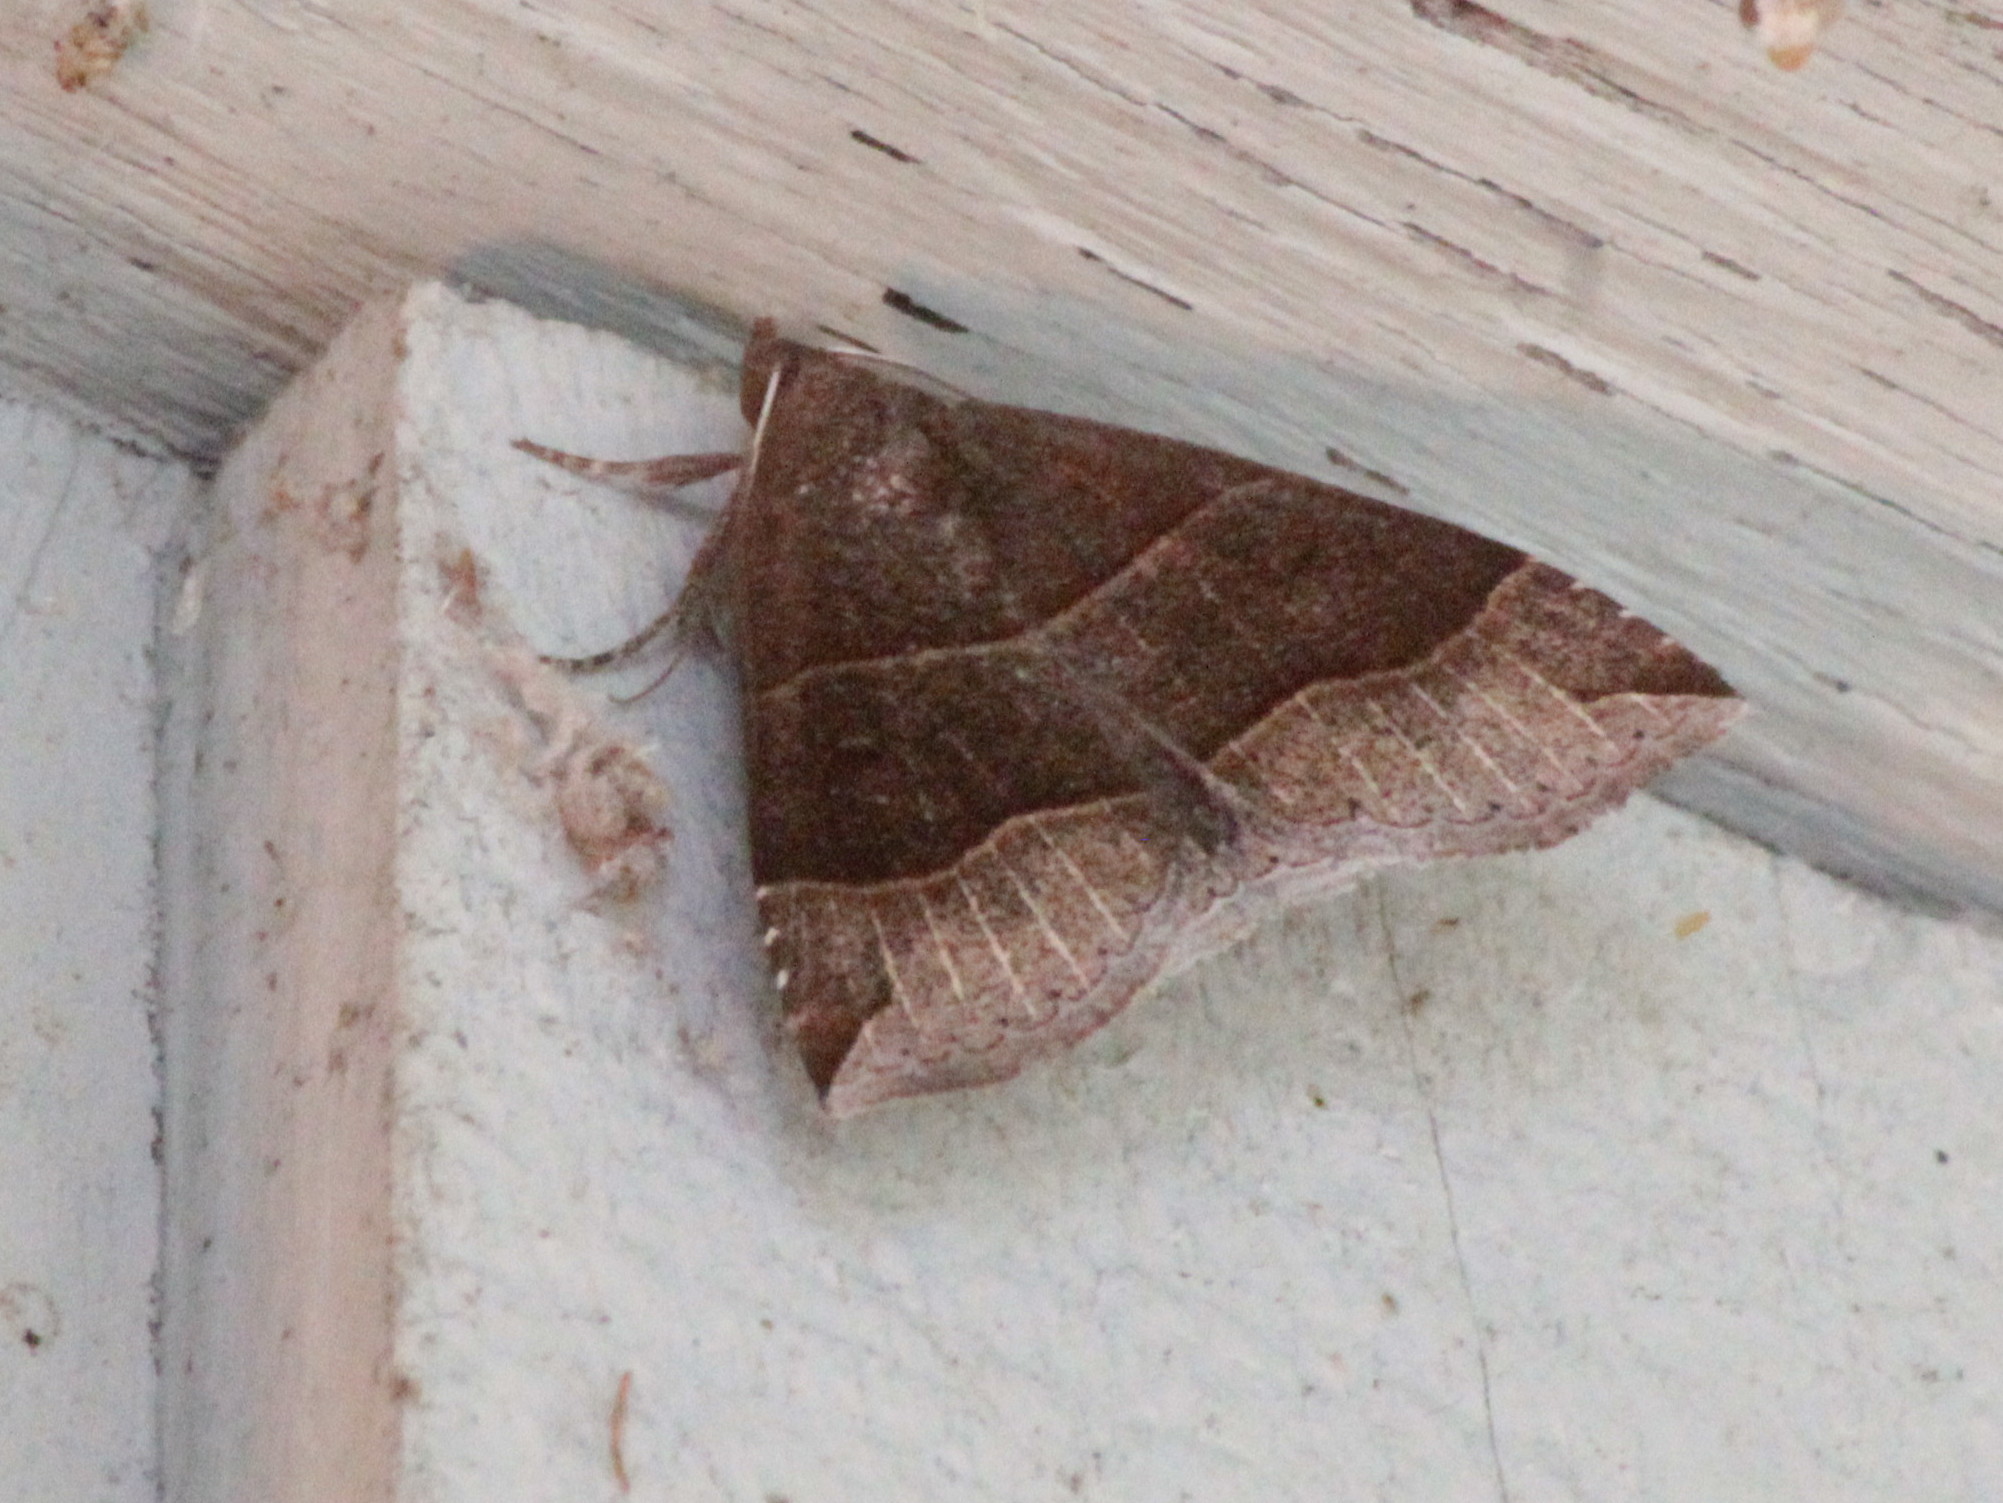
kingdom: Animalia
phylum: Arthropoda
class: Insecta
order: Lepidoptera
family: Erebidae
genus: Parallelia
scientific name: Parallelia bistriaris
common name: Maple looper moth
